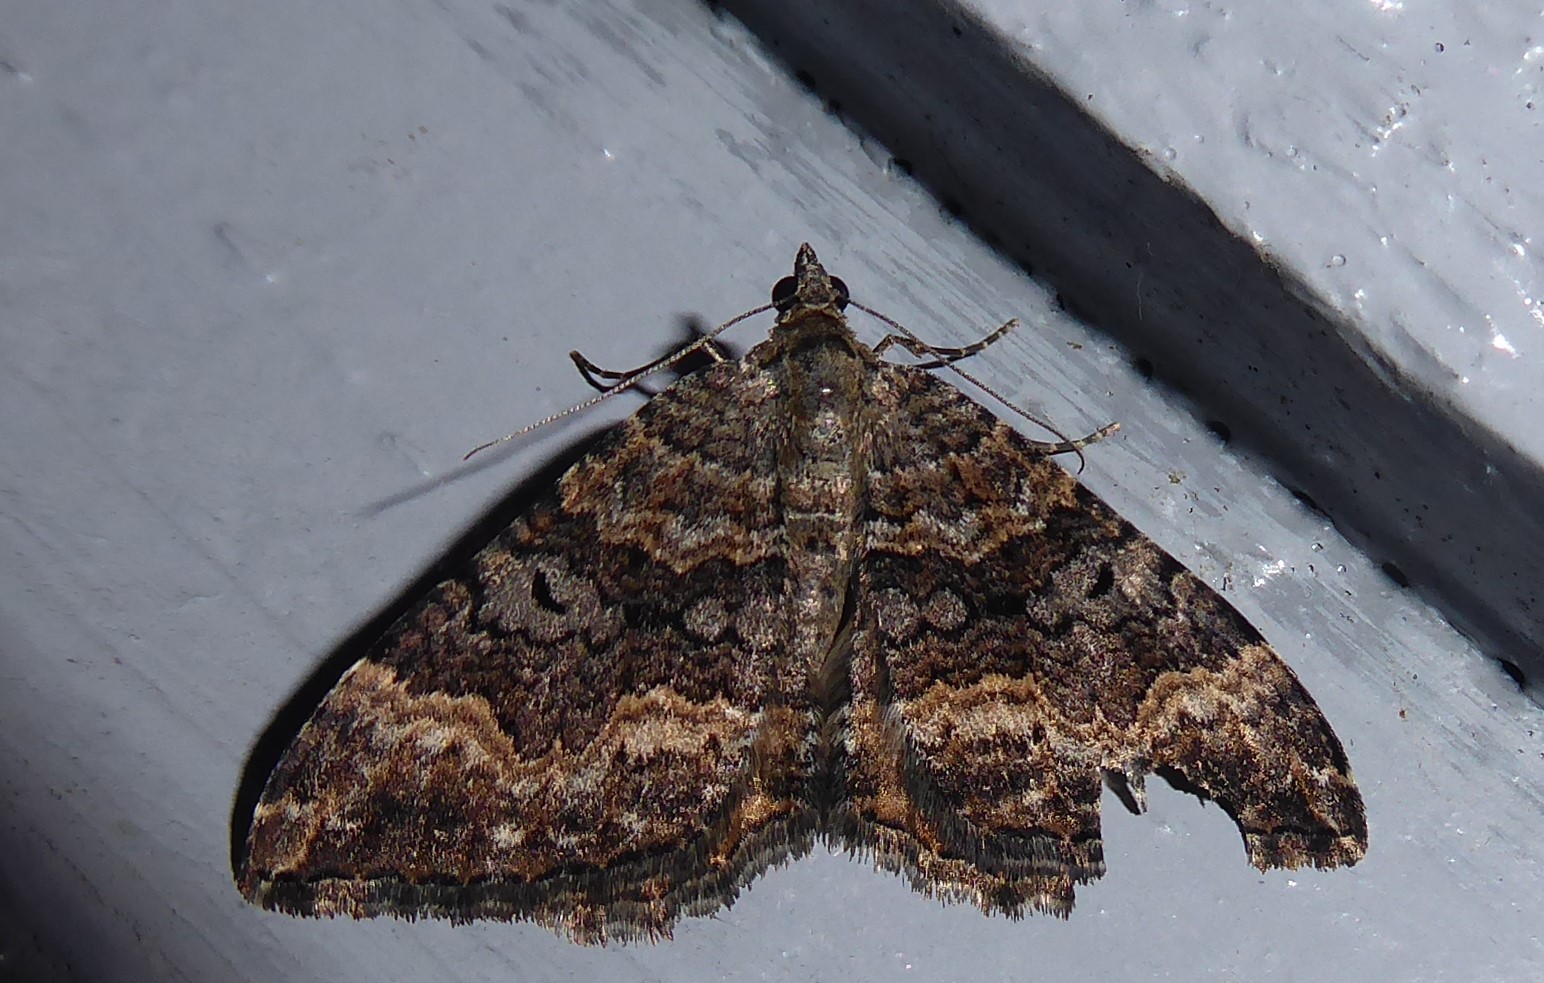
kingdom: Animalia
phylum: Arthropoda
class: Insecta
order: Lepidoptera
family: Geometridae
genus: Hydriomena
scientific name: Hydriomena deltoidata
